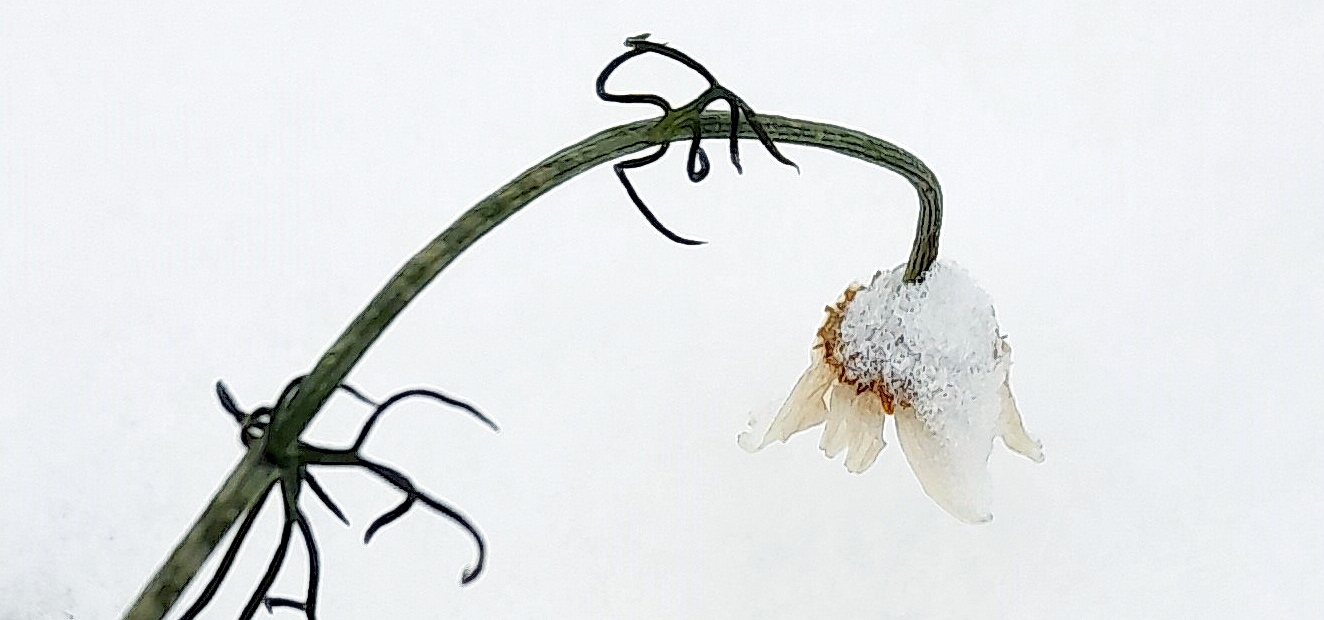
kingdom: Plantae
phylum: Tracheophyta
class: Magnoliopsida
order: Asterales
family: Asteraceae
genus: Tripleurospermum
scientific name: Tripleurospermum inodorum
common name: Scentless mayweed
